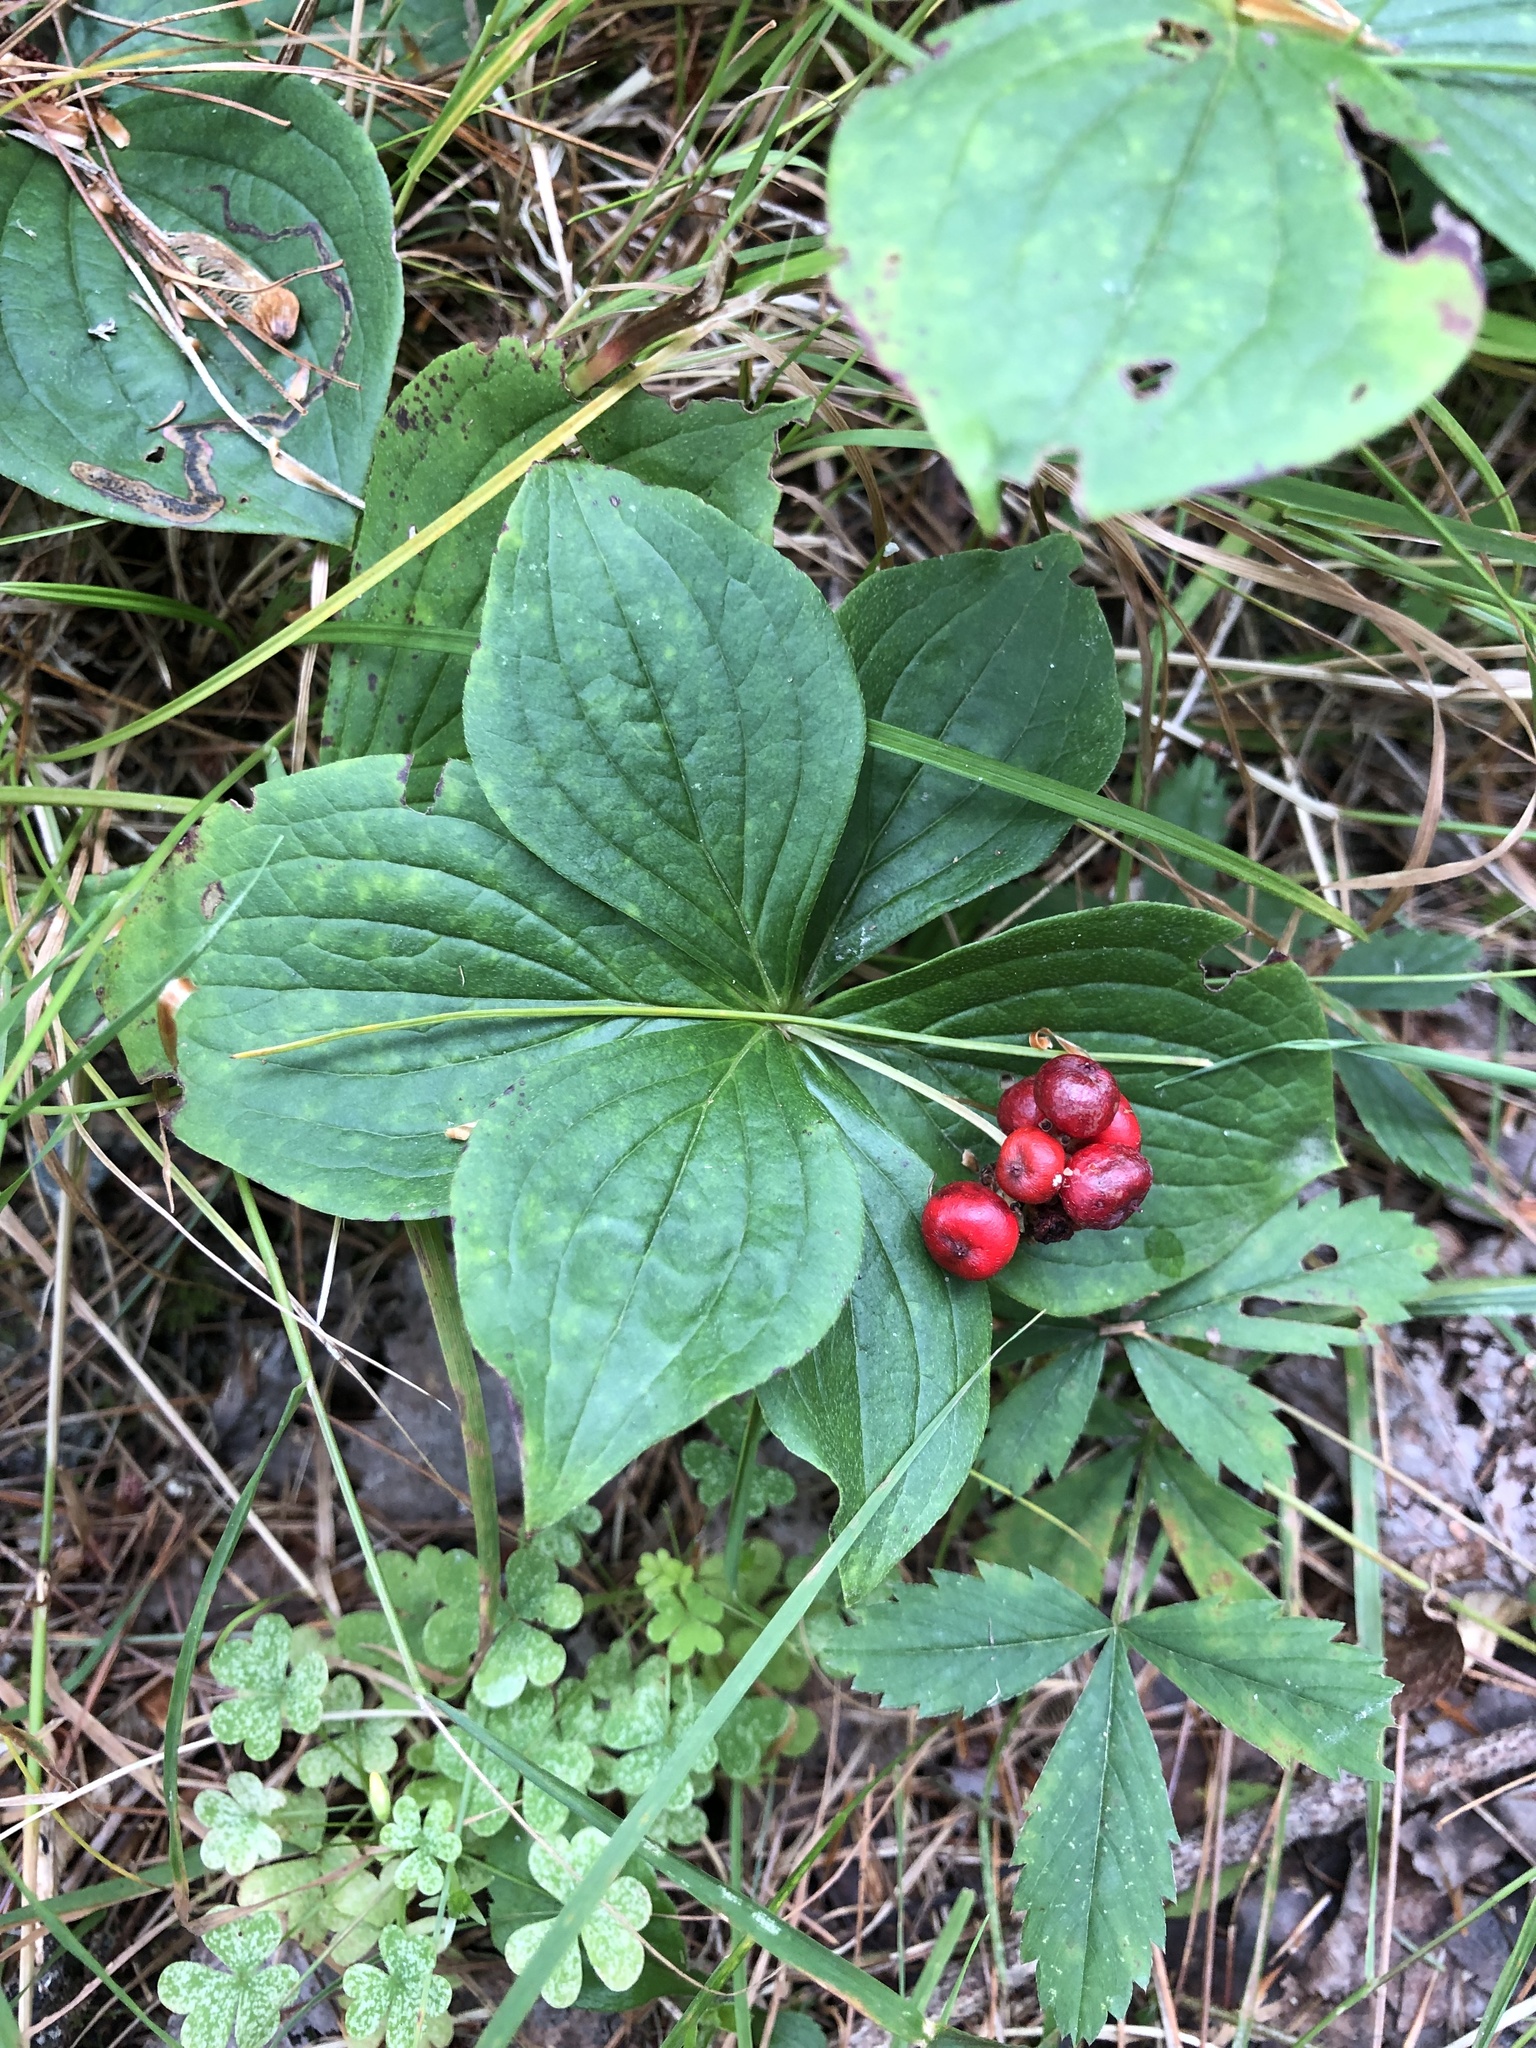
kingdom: Plantae
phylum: Tracheophyta
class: Magnoliopsida
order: Cornales
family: Cornaceae
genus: Cornus
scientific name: Cornus canadensis
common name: Creeping dogwood
